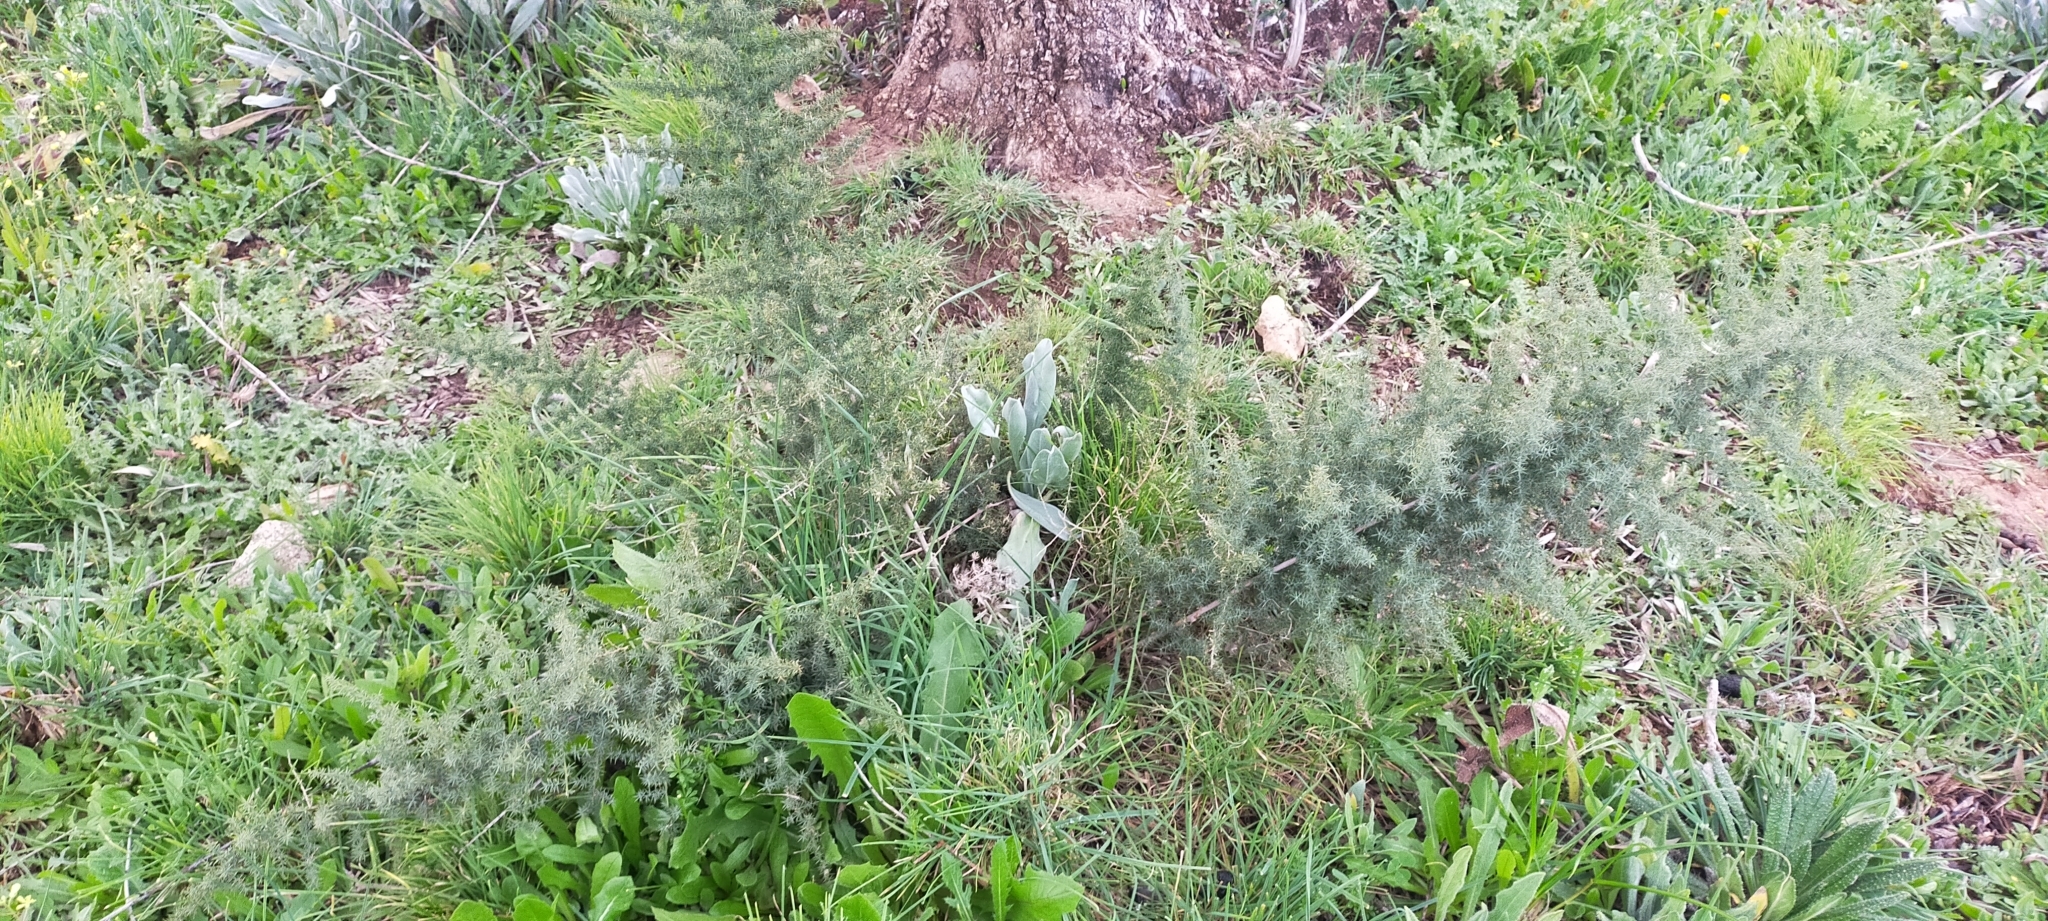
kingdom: Plantae
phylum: Tracheophyta
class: Liliopsida
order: Asparagales
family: Asparagaceae
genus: Asparagus
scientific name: Asparagus acutifolius
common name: Wild asparagus
